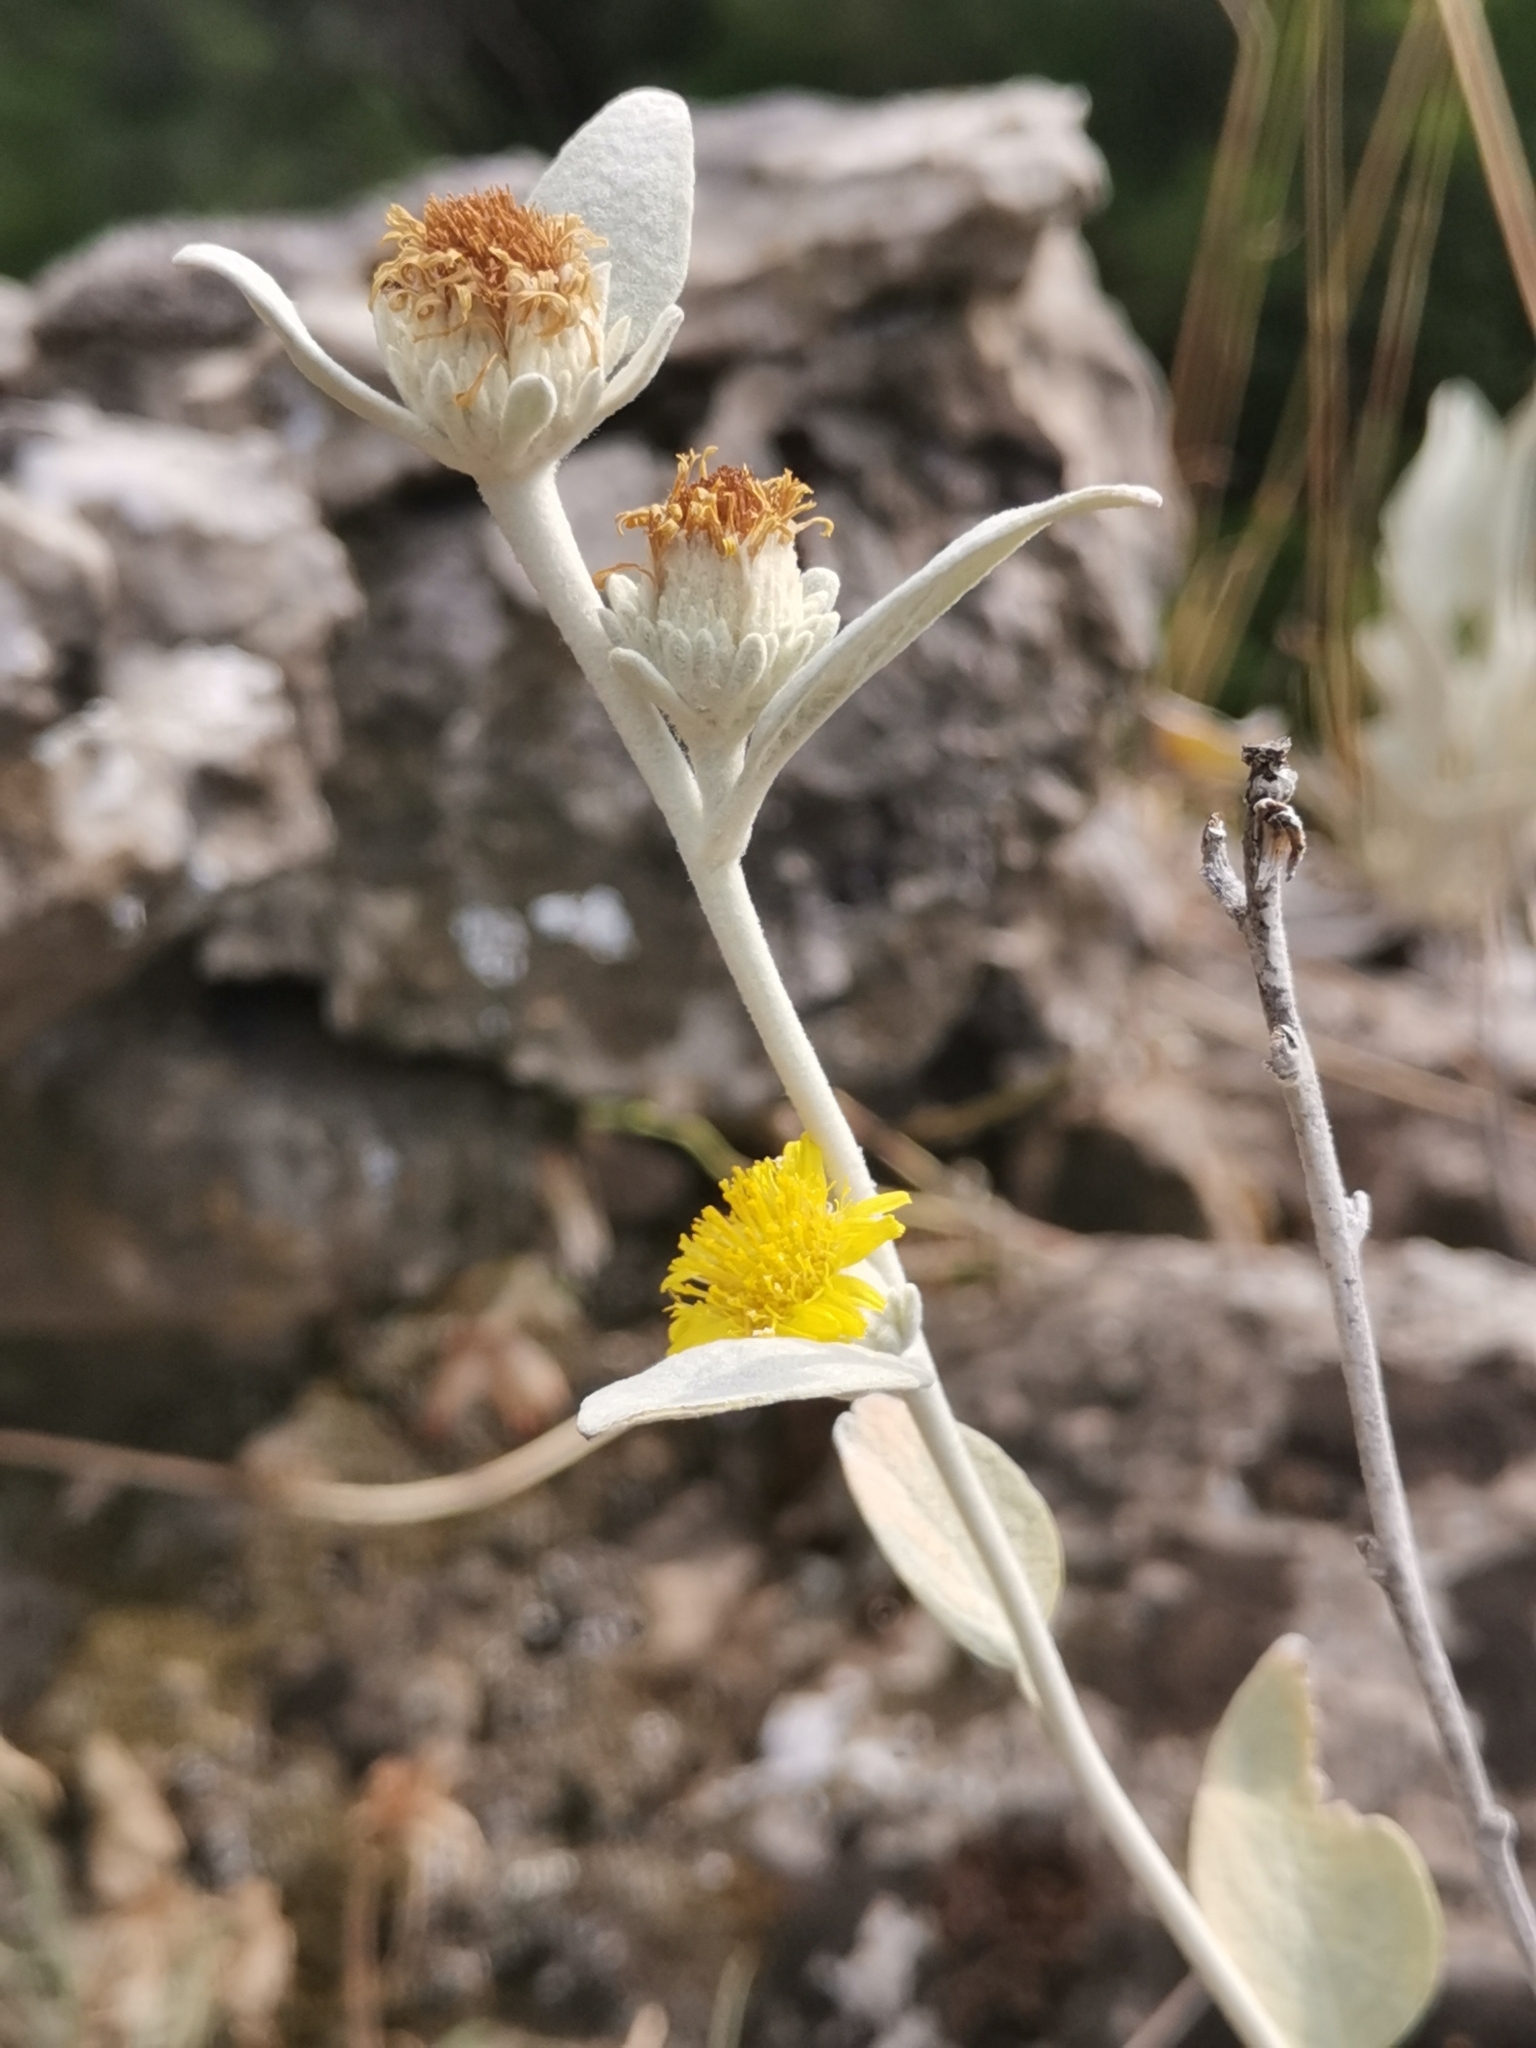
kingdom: Plantae
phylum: Tracheophyta
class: Magnoliopsida
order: Asterales
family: Asteraceae
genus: Pentanema
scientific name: Pentanema verbascifolium
